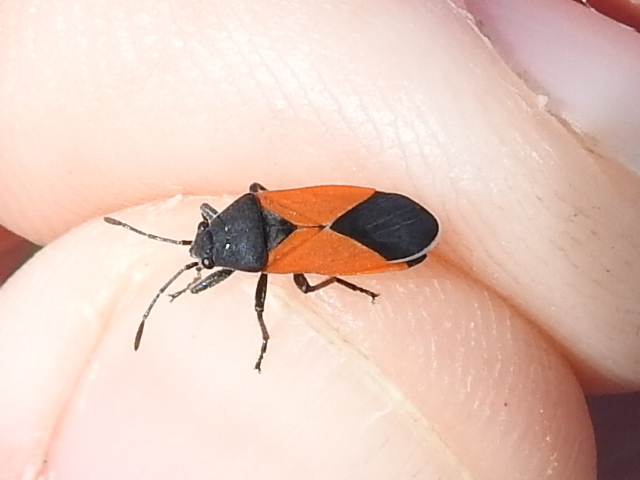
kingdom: Animalia
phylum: Arthropoda
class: Insecta
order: Hemiptera
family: Lygaeidae
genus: Melanopleurus
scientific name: Melanopleurus belfragei
